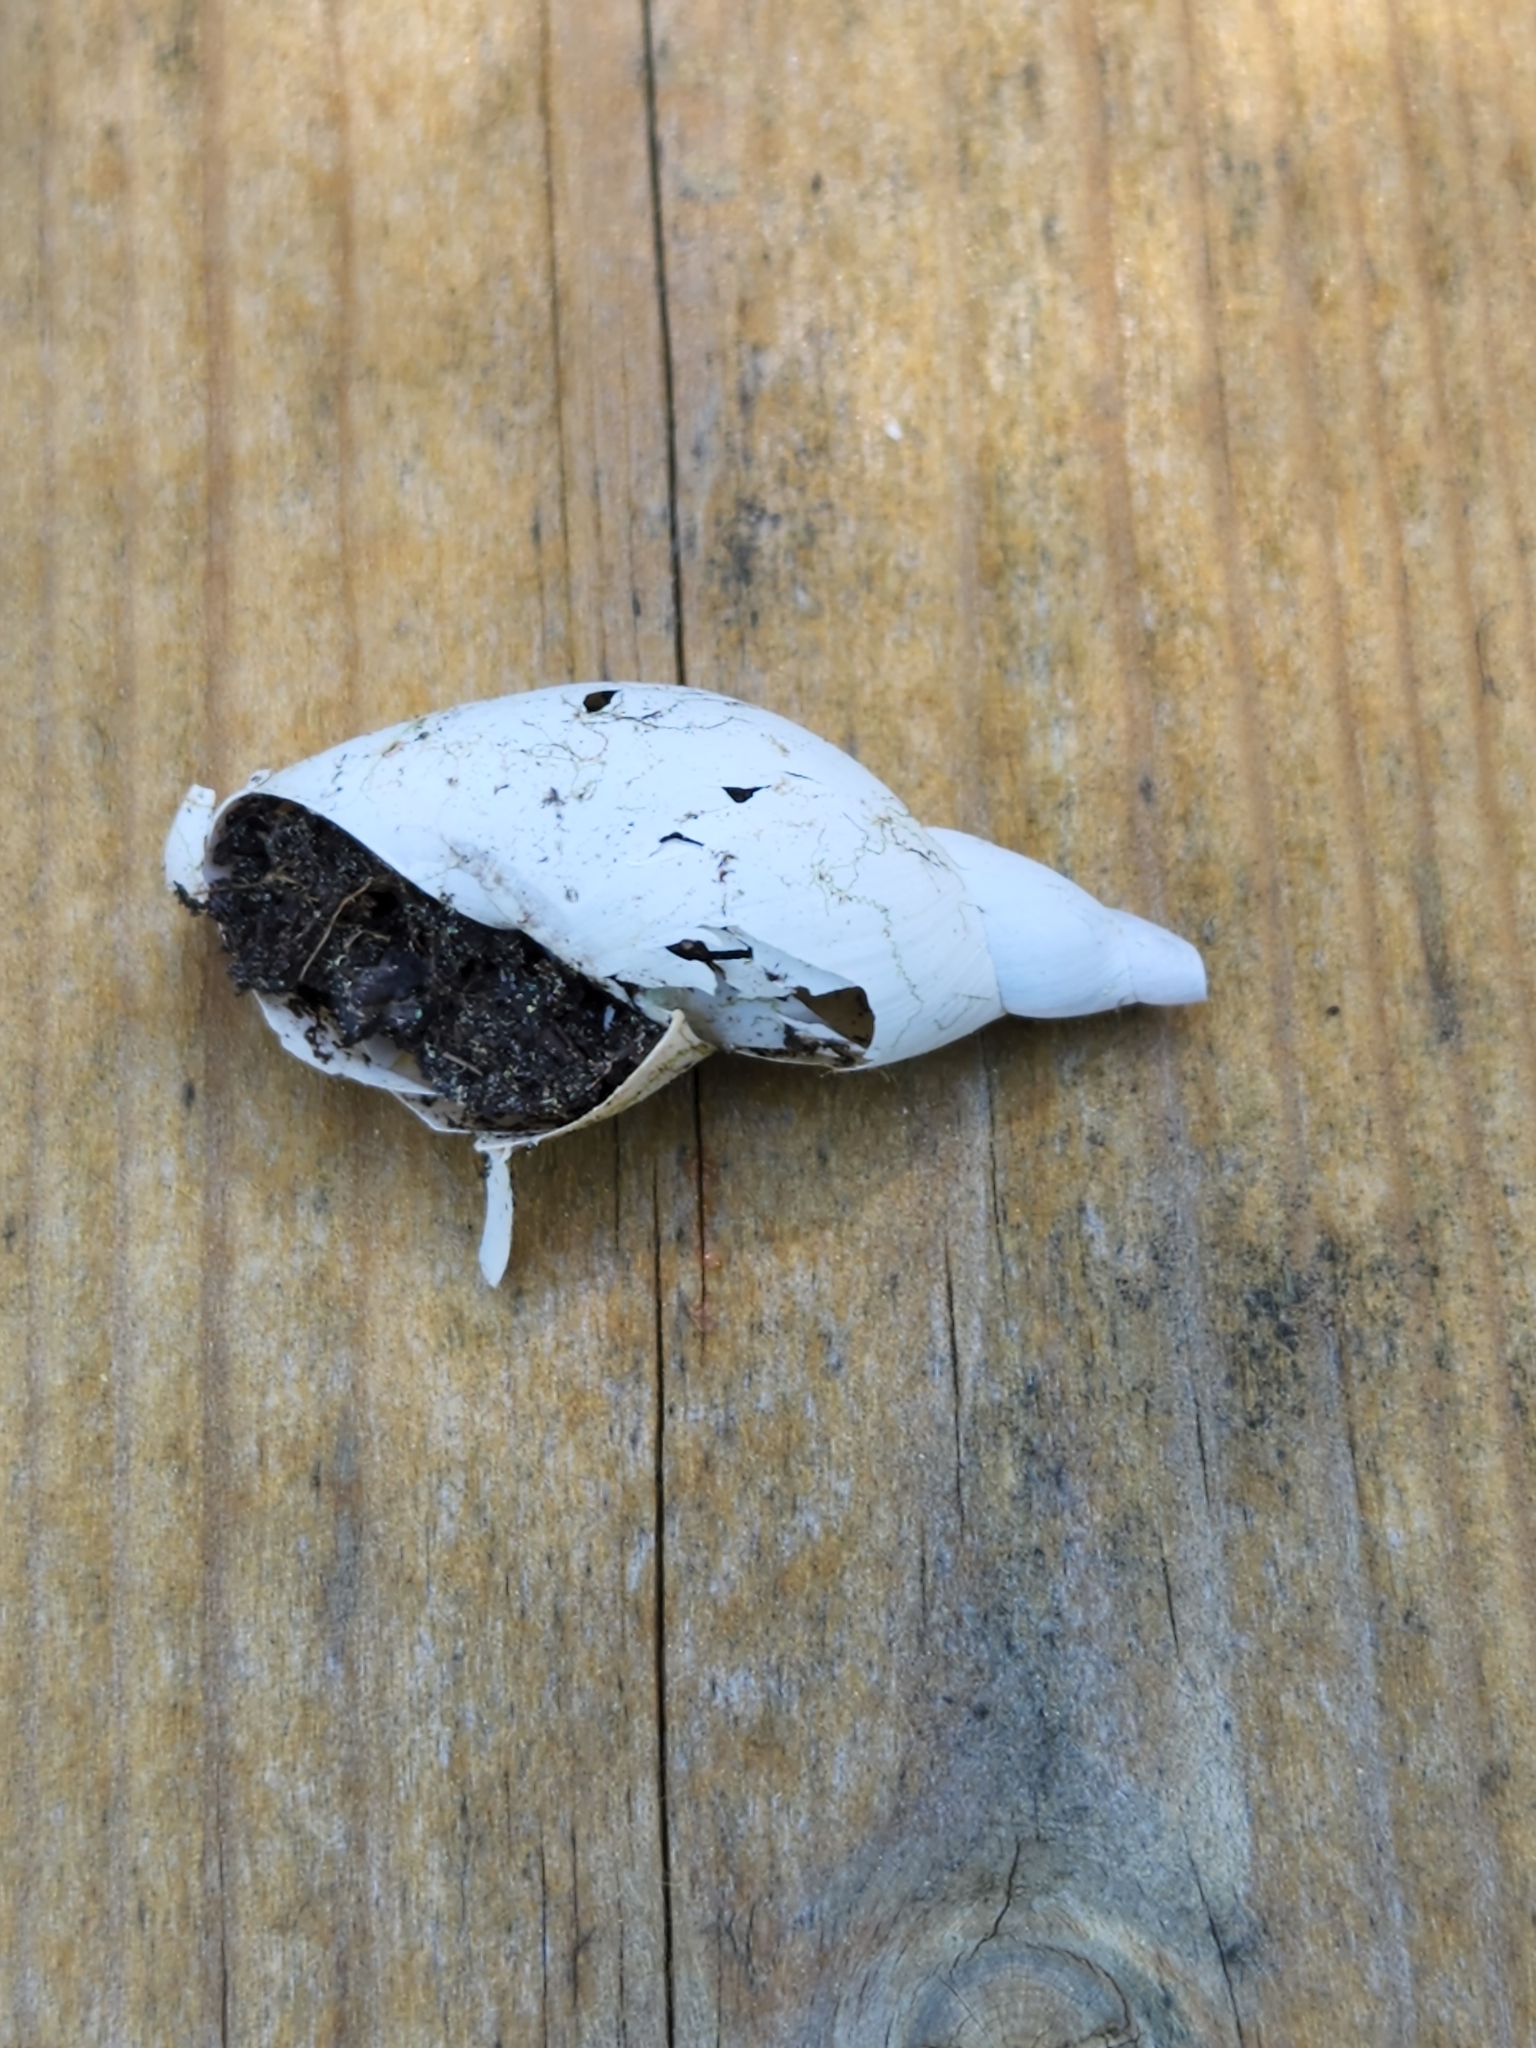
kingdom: Animalia
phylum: Mollusca
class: Gastropoda
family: Lymnaeidae
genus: Lymnaea
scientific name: Lymnaea stagnalis
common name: Great pond snail
